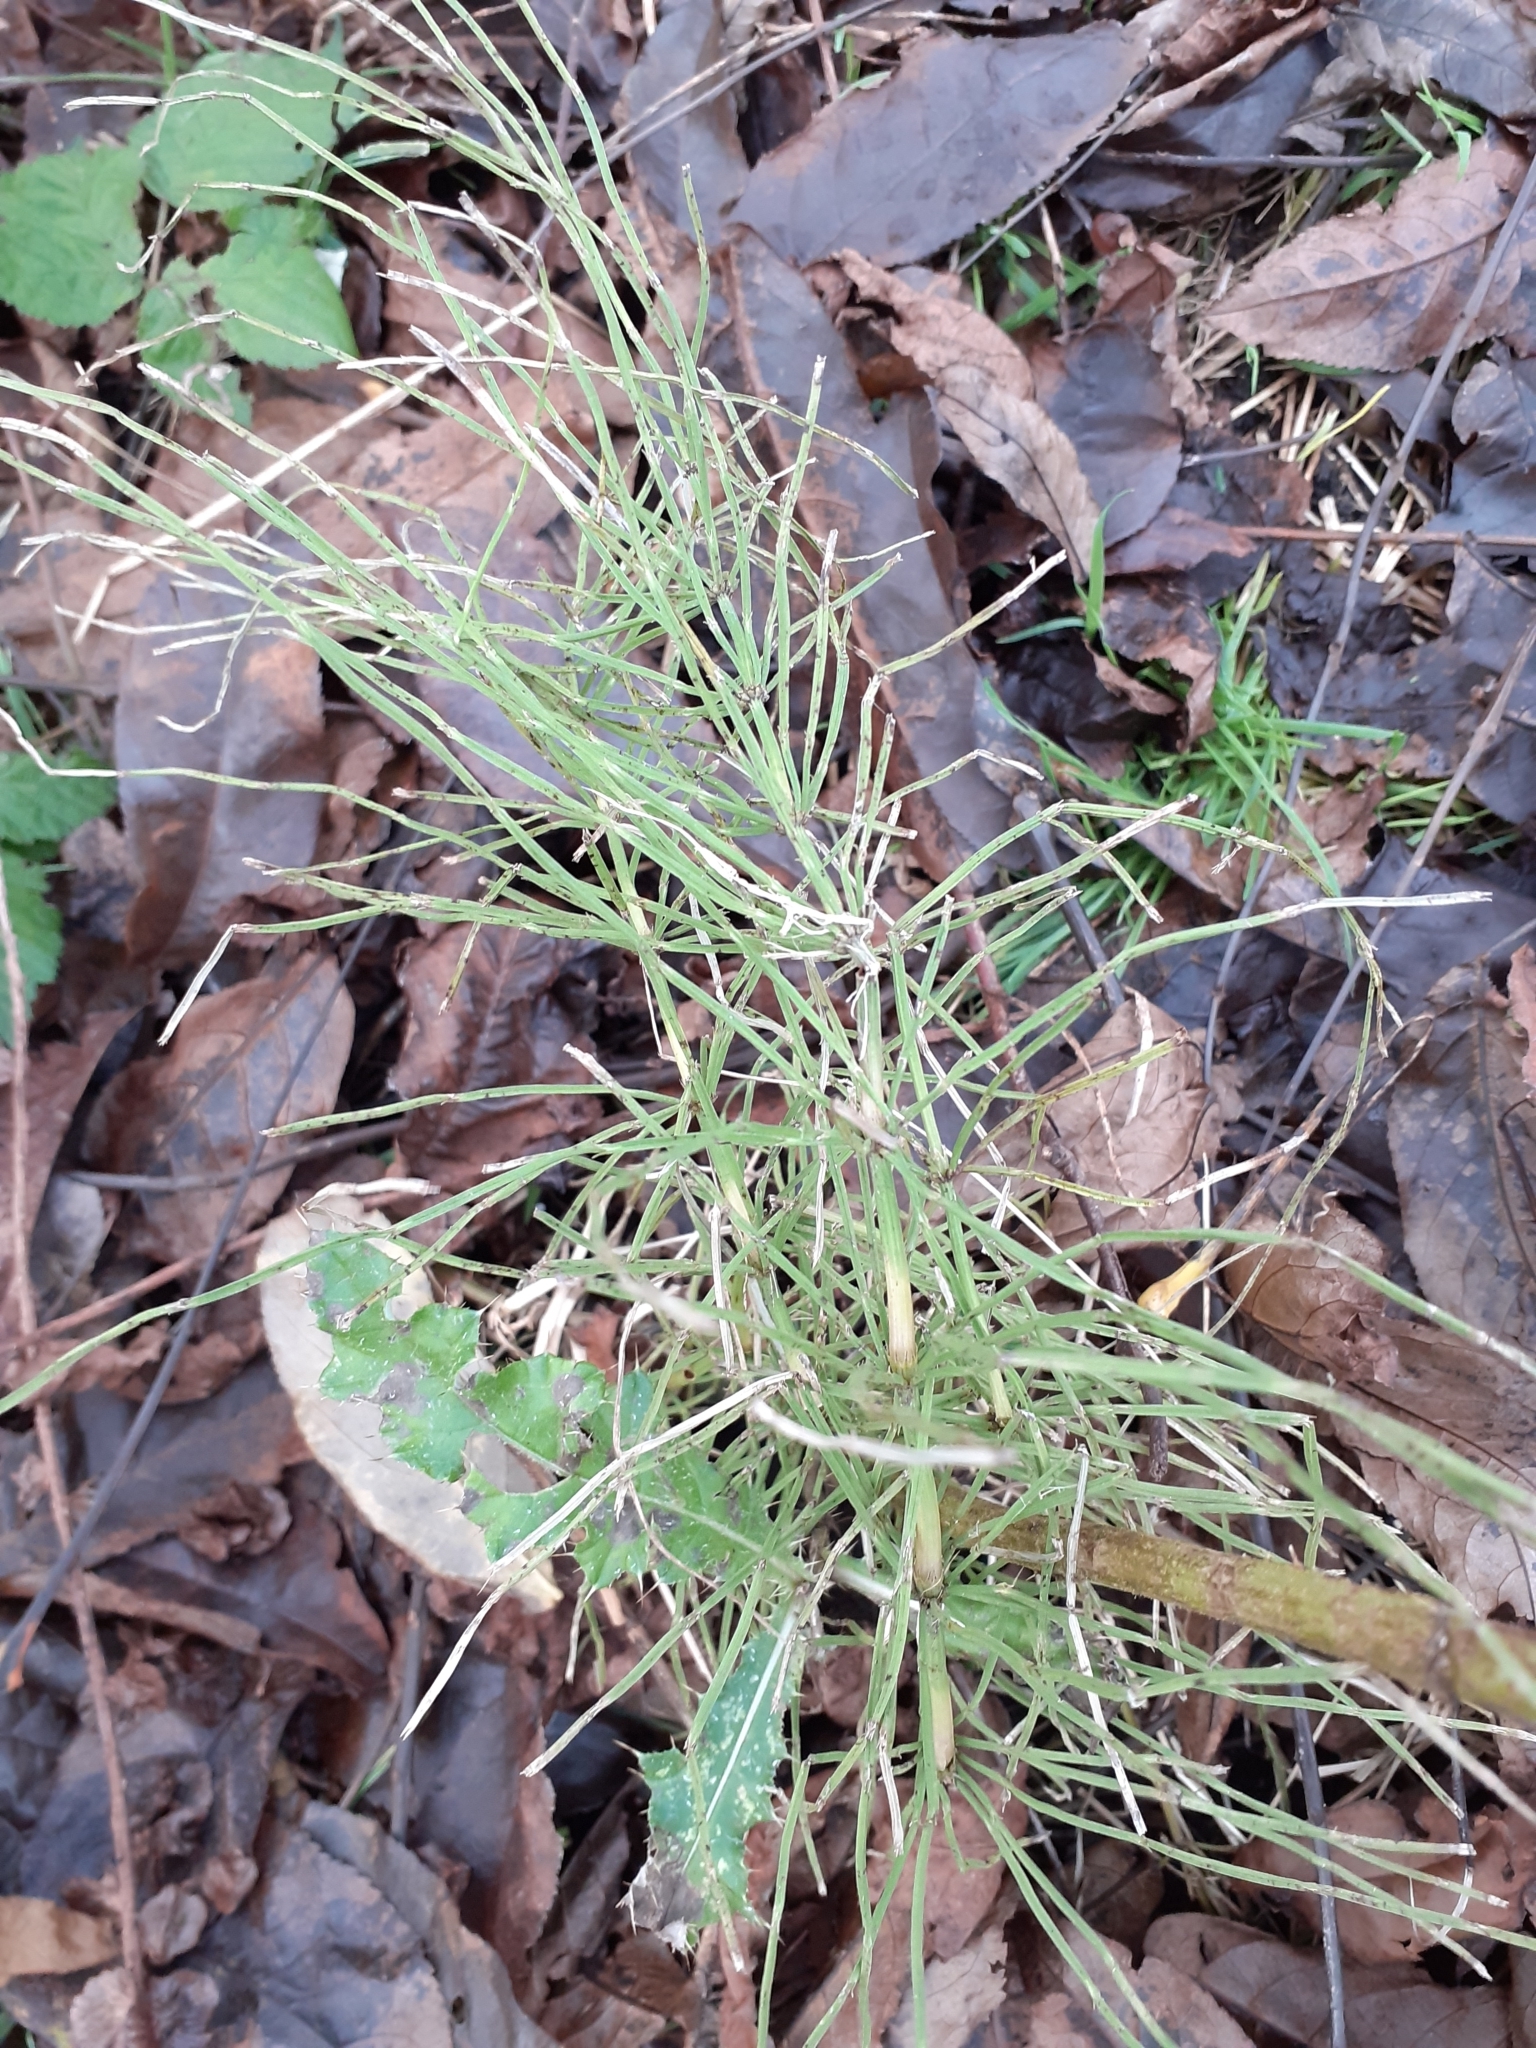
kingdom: Plantae
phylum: Tracheophyta
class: Polypodiopsida
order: Equisetales
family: Equisetaceae
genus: Equisetum
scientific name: Equisetum arvense
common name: Field horsetail
